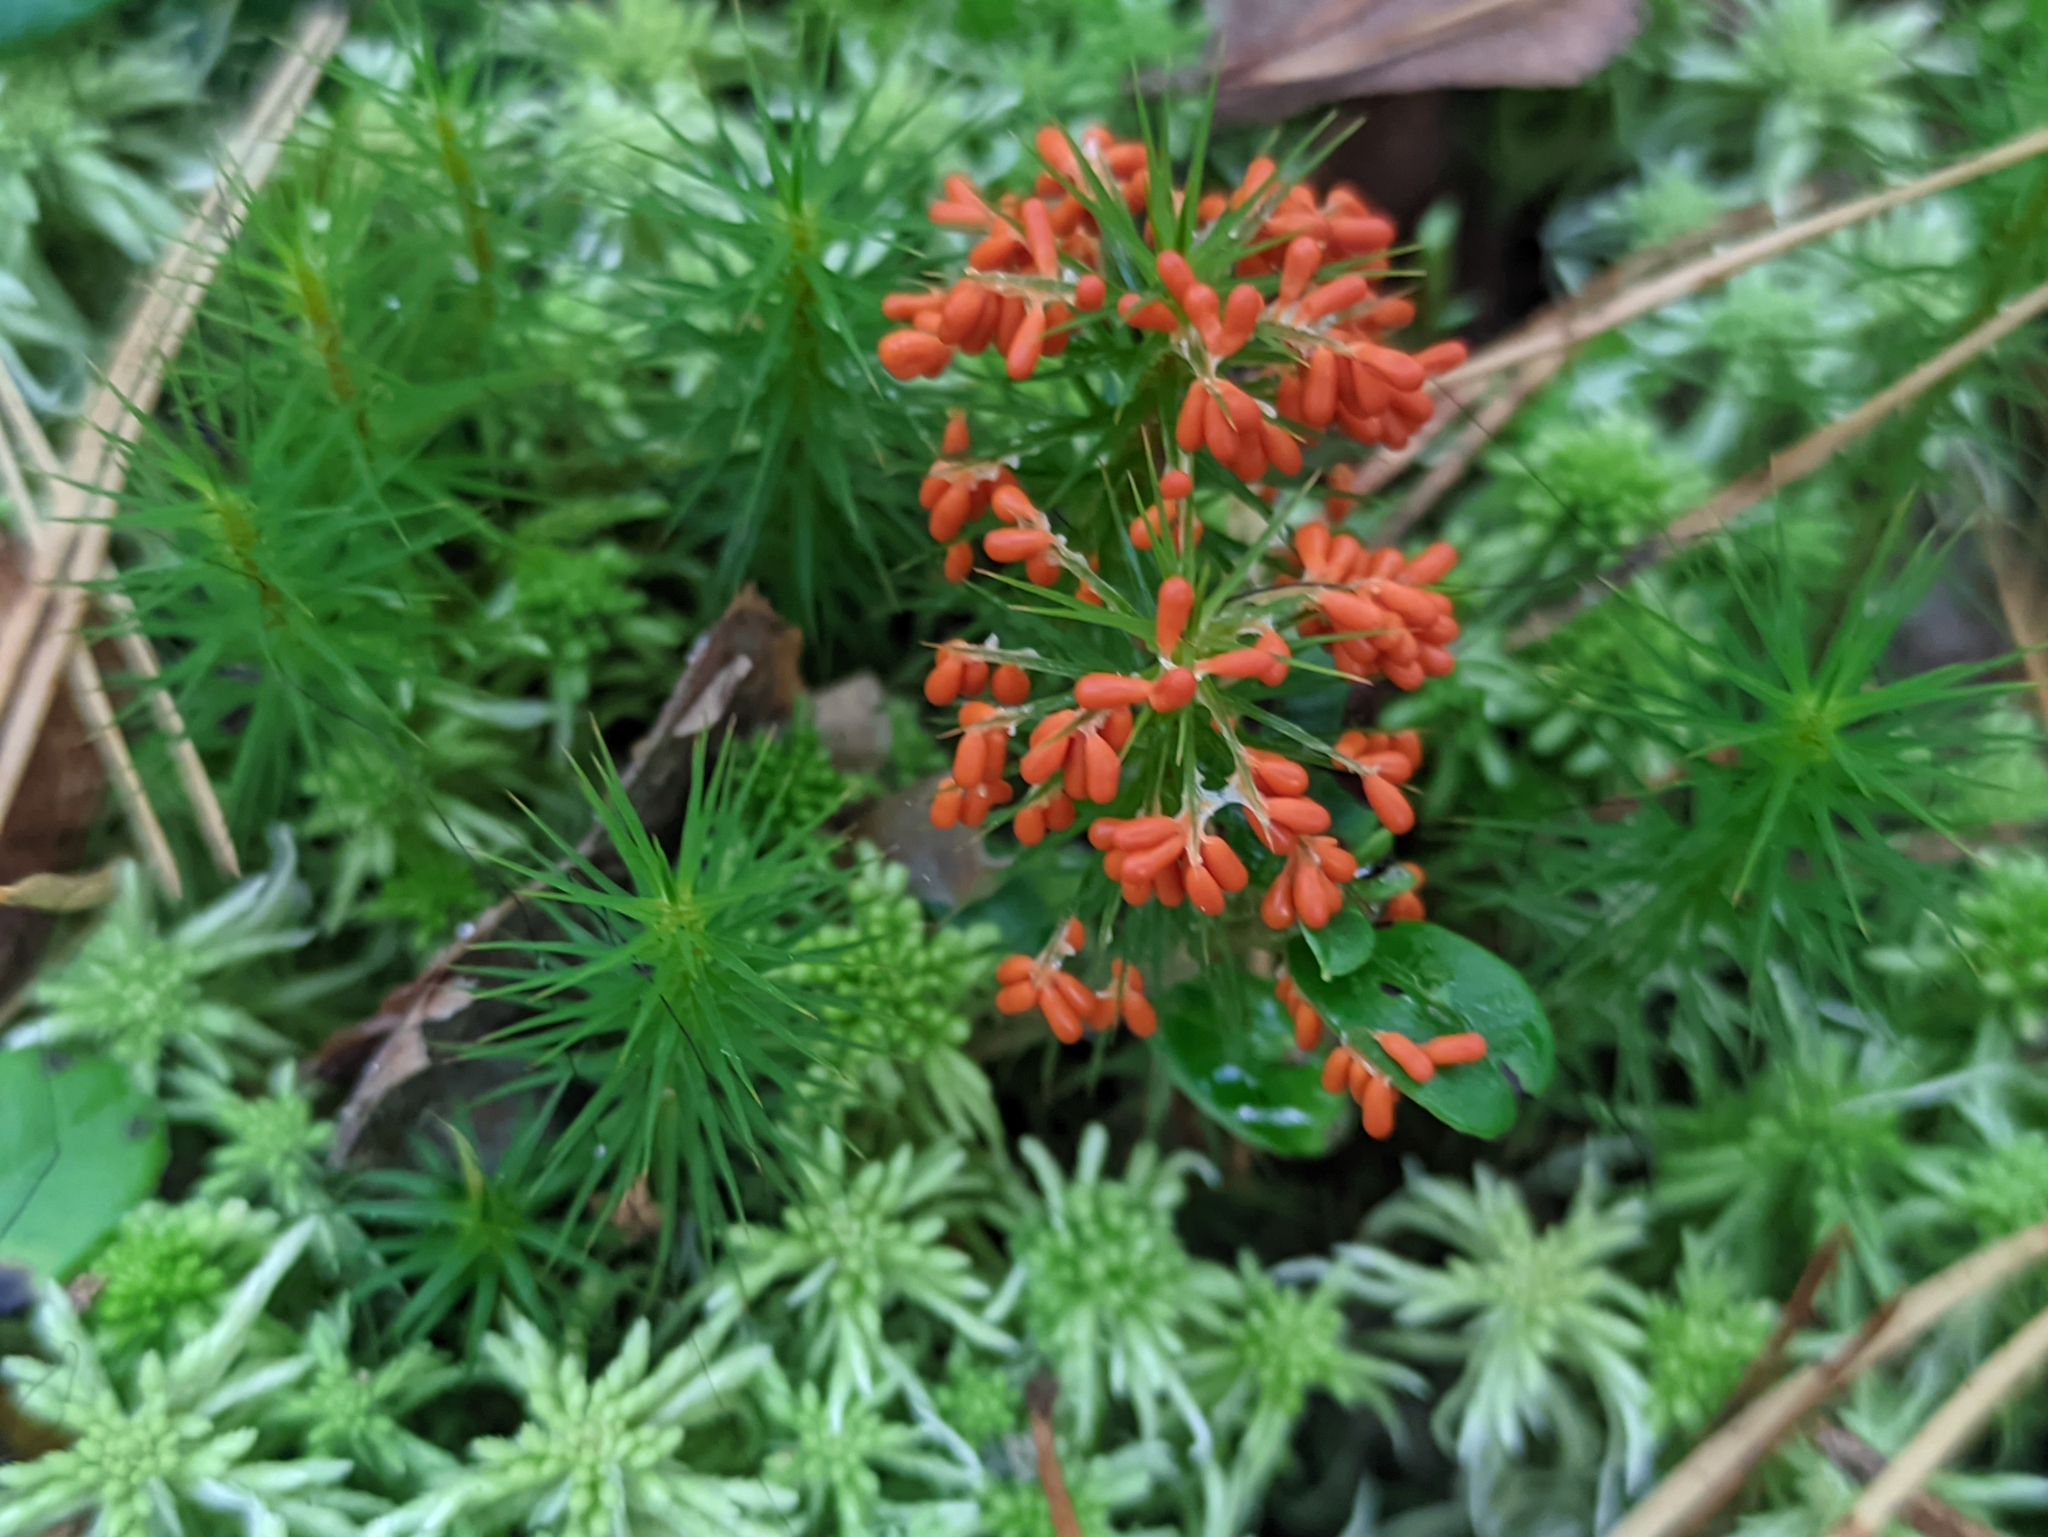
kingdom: Protozoa
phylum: Mycetozoa
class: Myxomycetes
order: Physarales
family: Physaraceae
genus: Leocarpus
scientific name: Leocarpus fragilis
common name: Insect-egg slime
